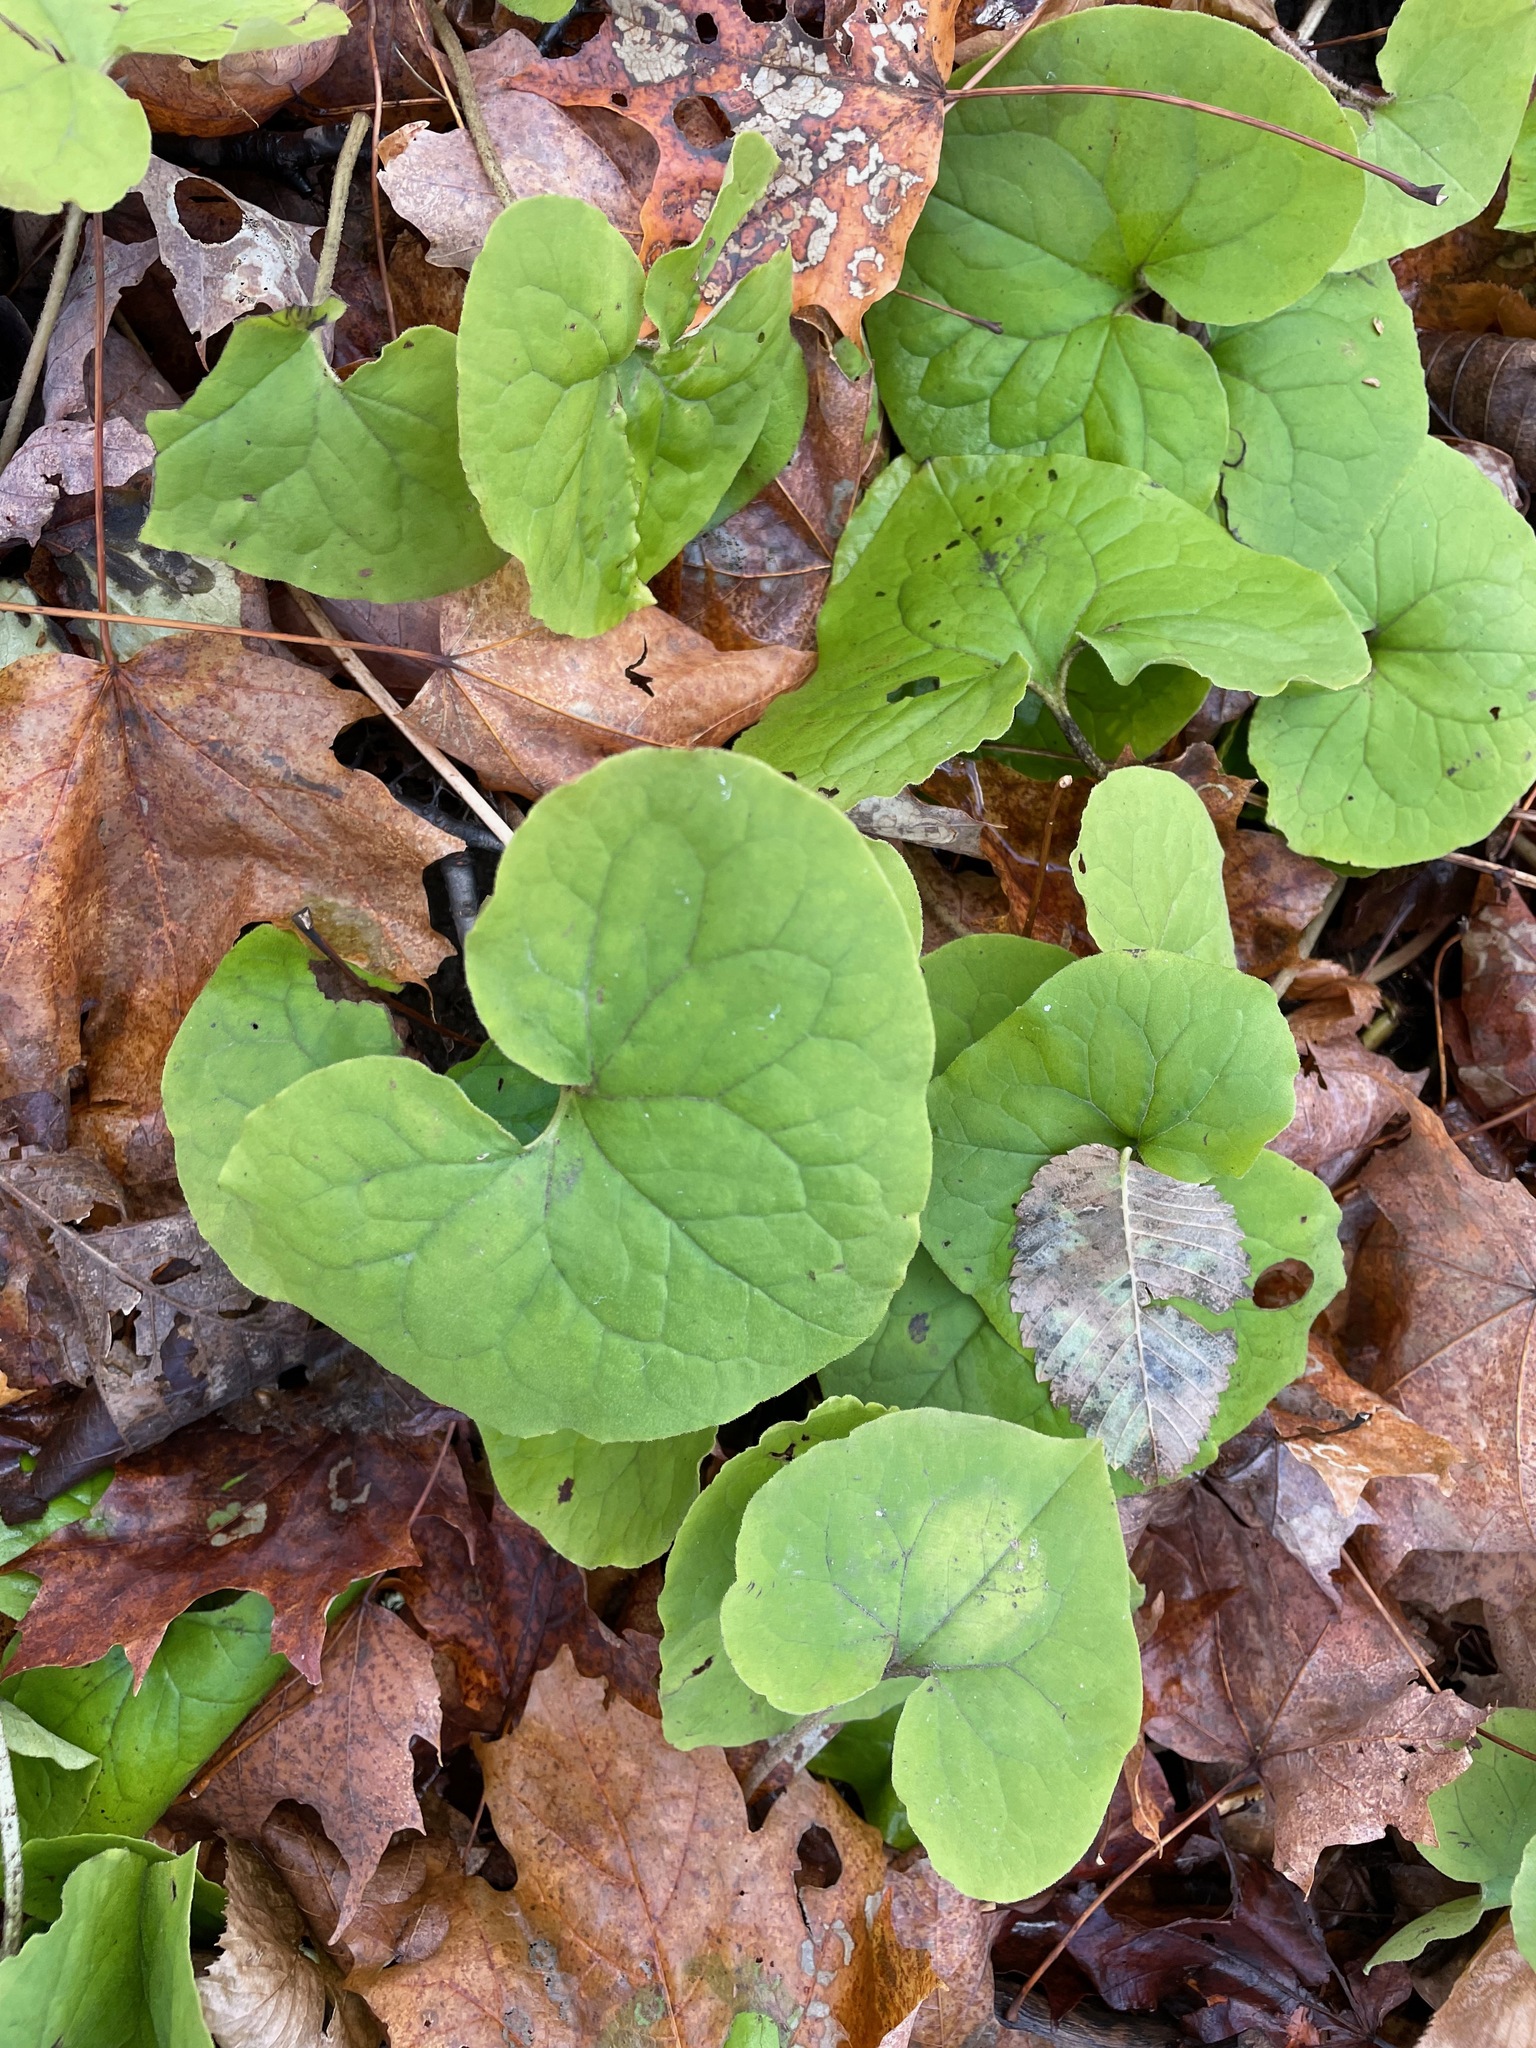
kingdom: Plantae
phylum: Tracheophyta
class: Magnoliopsida
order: Piperales
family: Aristolochiaceae
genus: Asarum
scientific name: Asarum canadense
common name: Wild ginger
